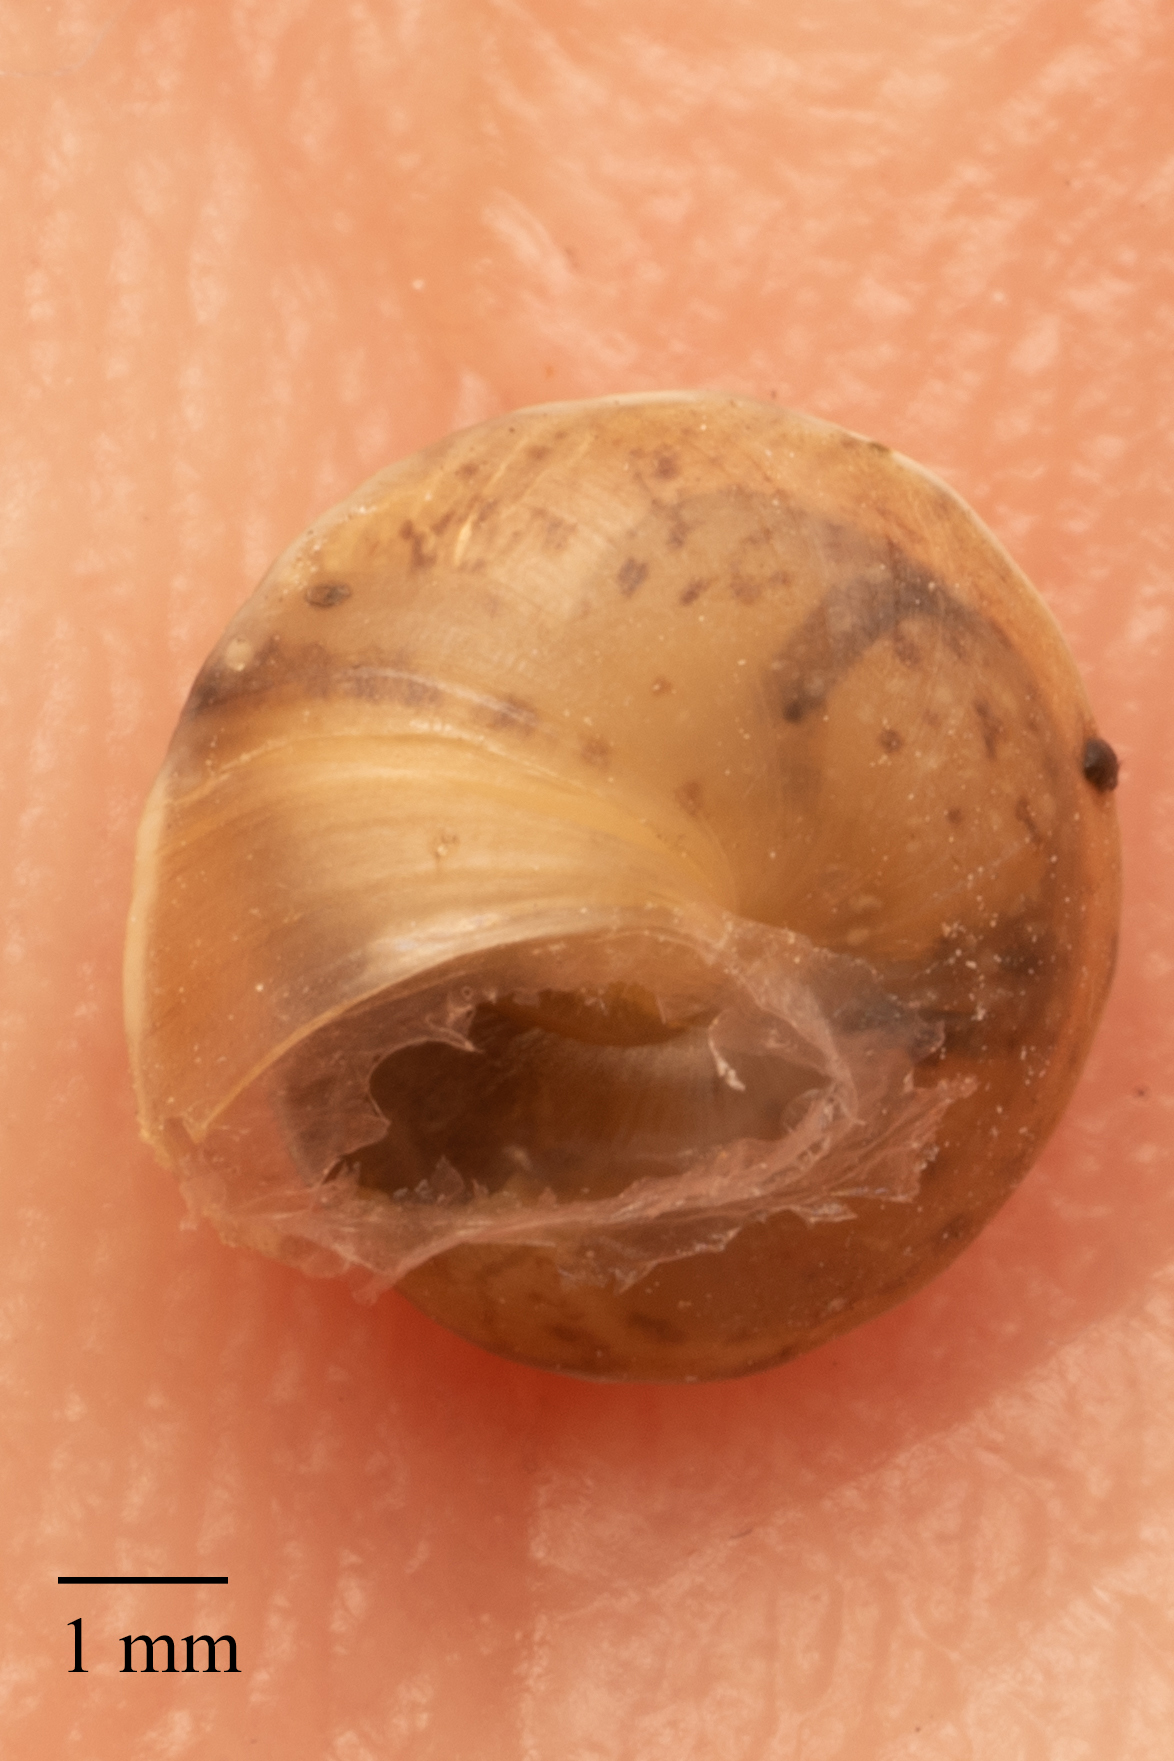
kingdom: Animalia
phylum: Mollusca
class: Gastropoda
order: Stylommatophora
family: Hygromiidae
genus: Hygromia
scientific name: Hygromia cinctella
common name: Girdled snail
